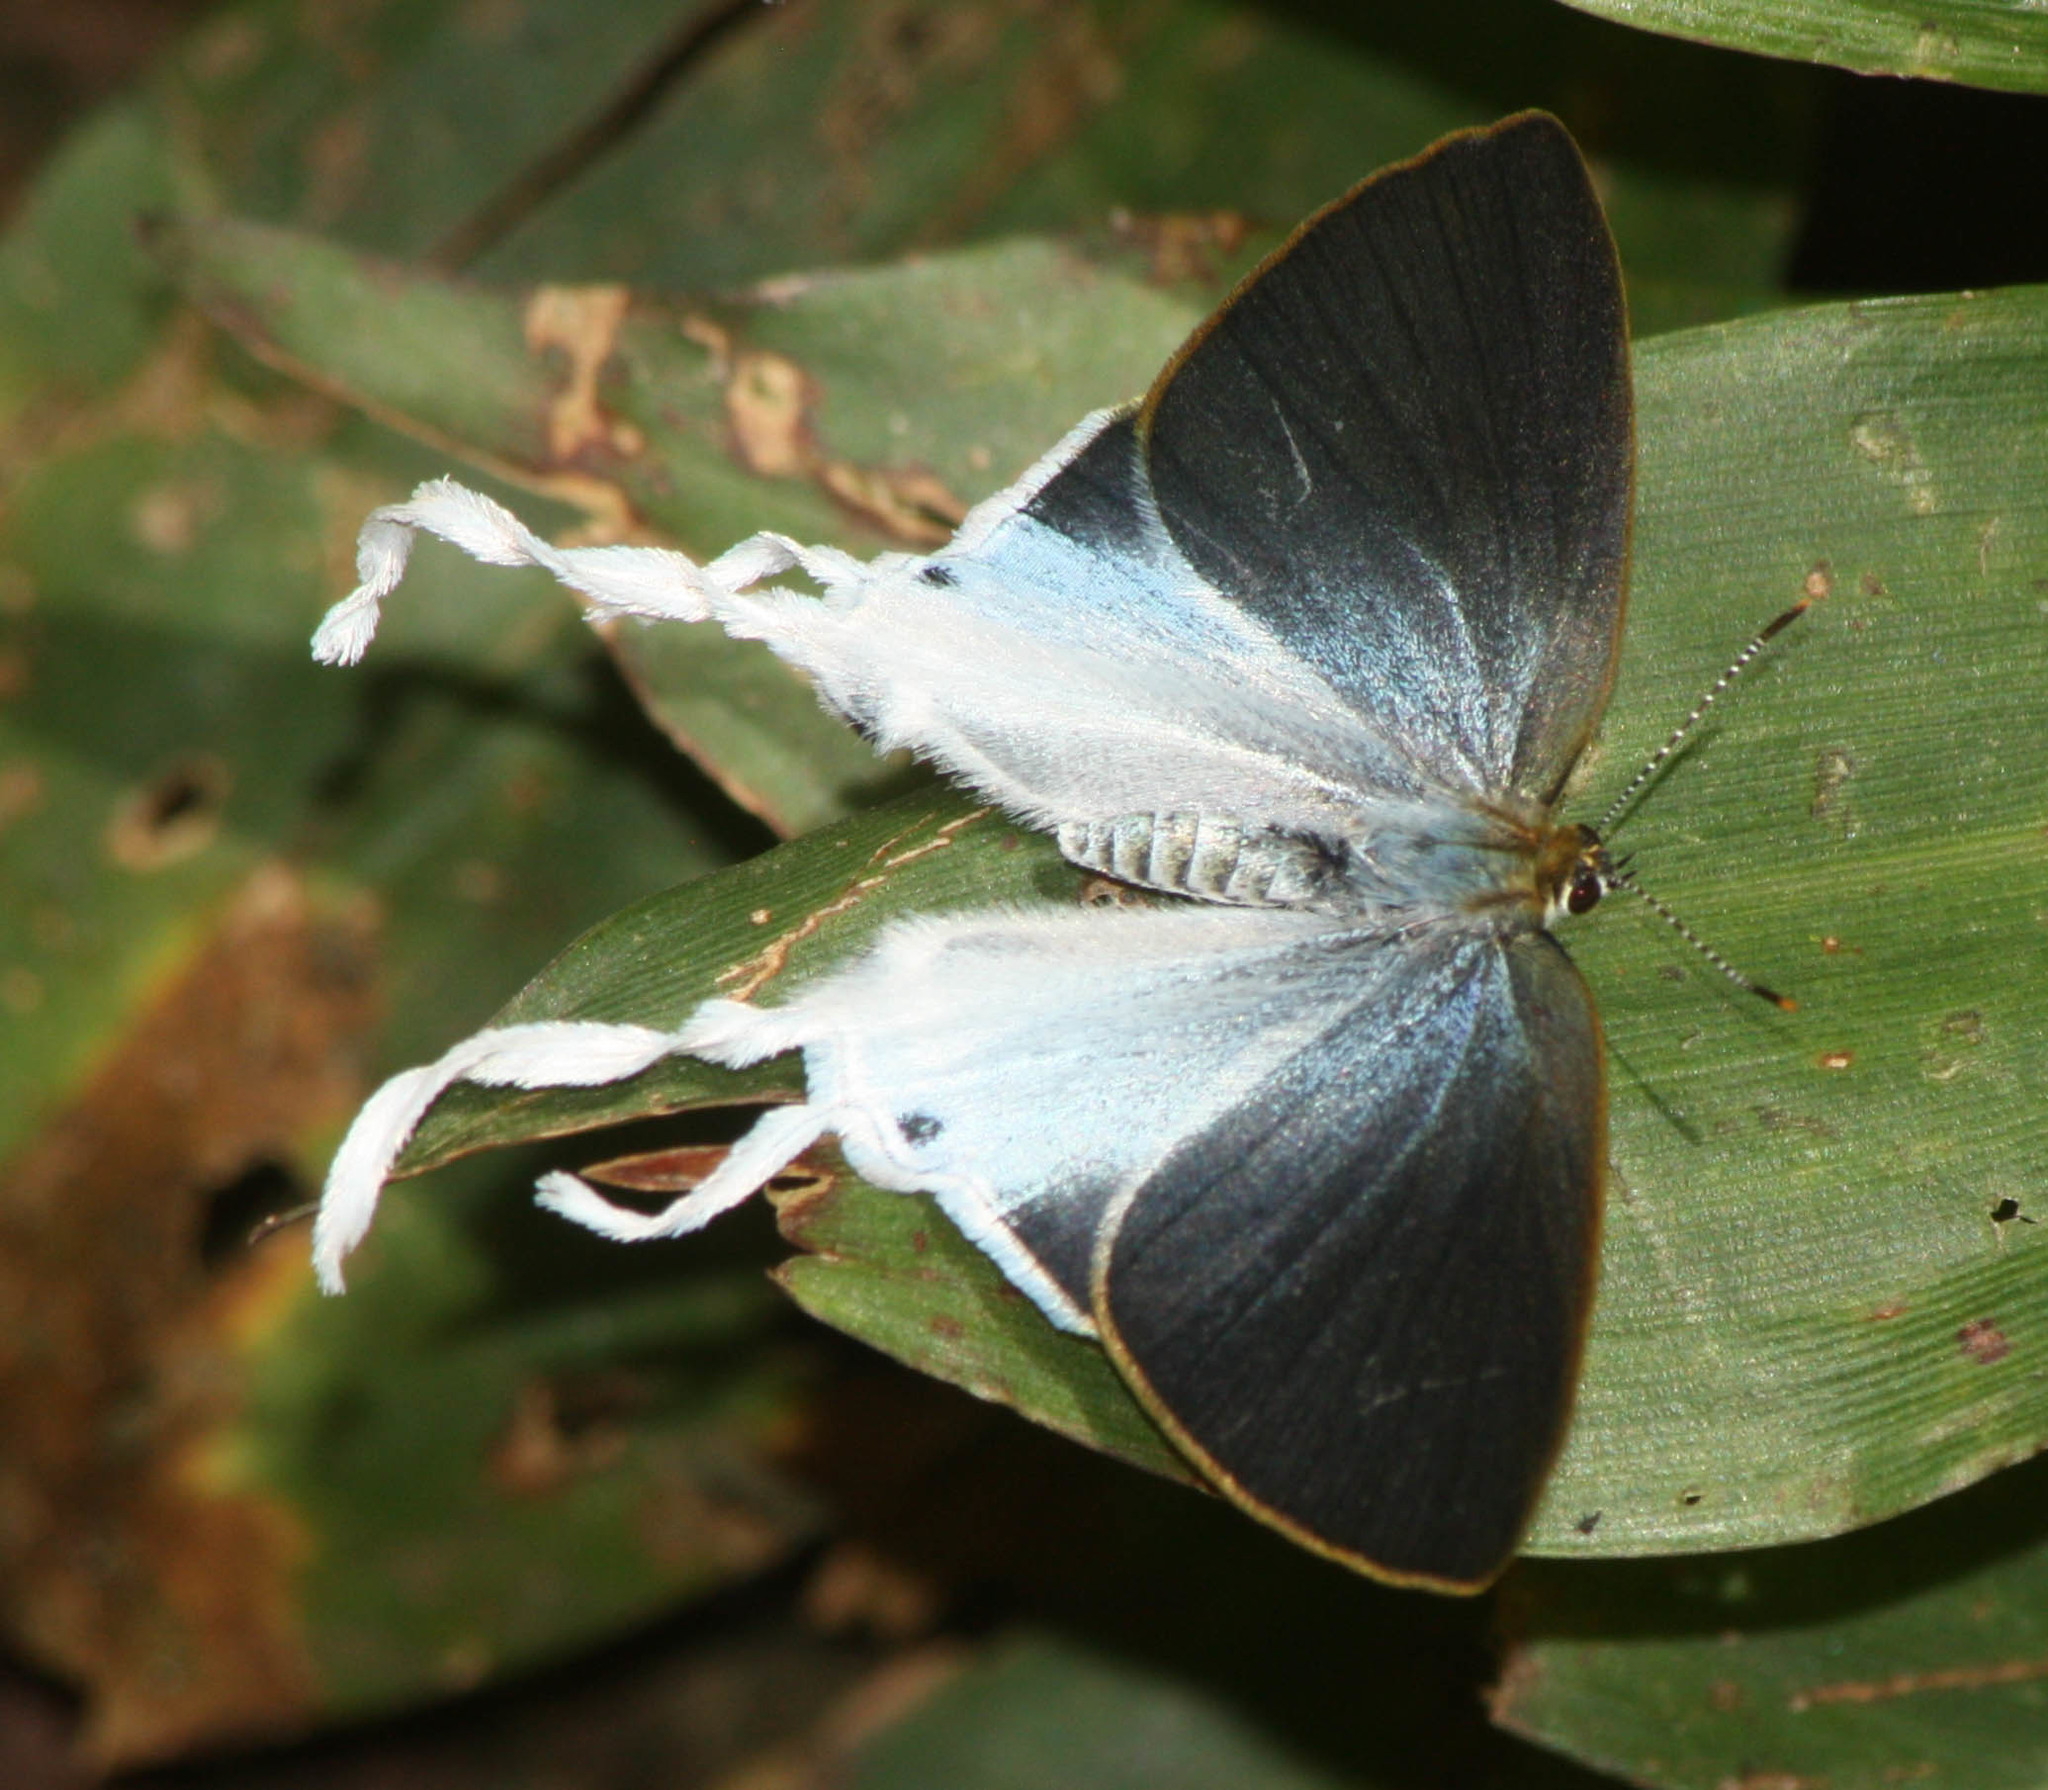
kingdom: Animalia
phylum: Arthropoda
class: Insecta
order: Lepidoptera
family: Lycaenidae
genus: Zeltus
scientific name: Zeltus amasa
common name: Fluffy tit
